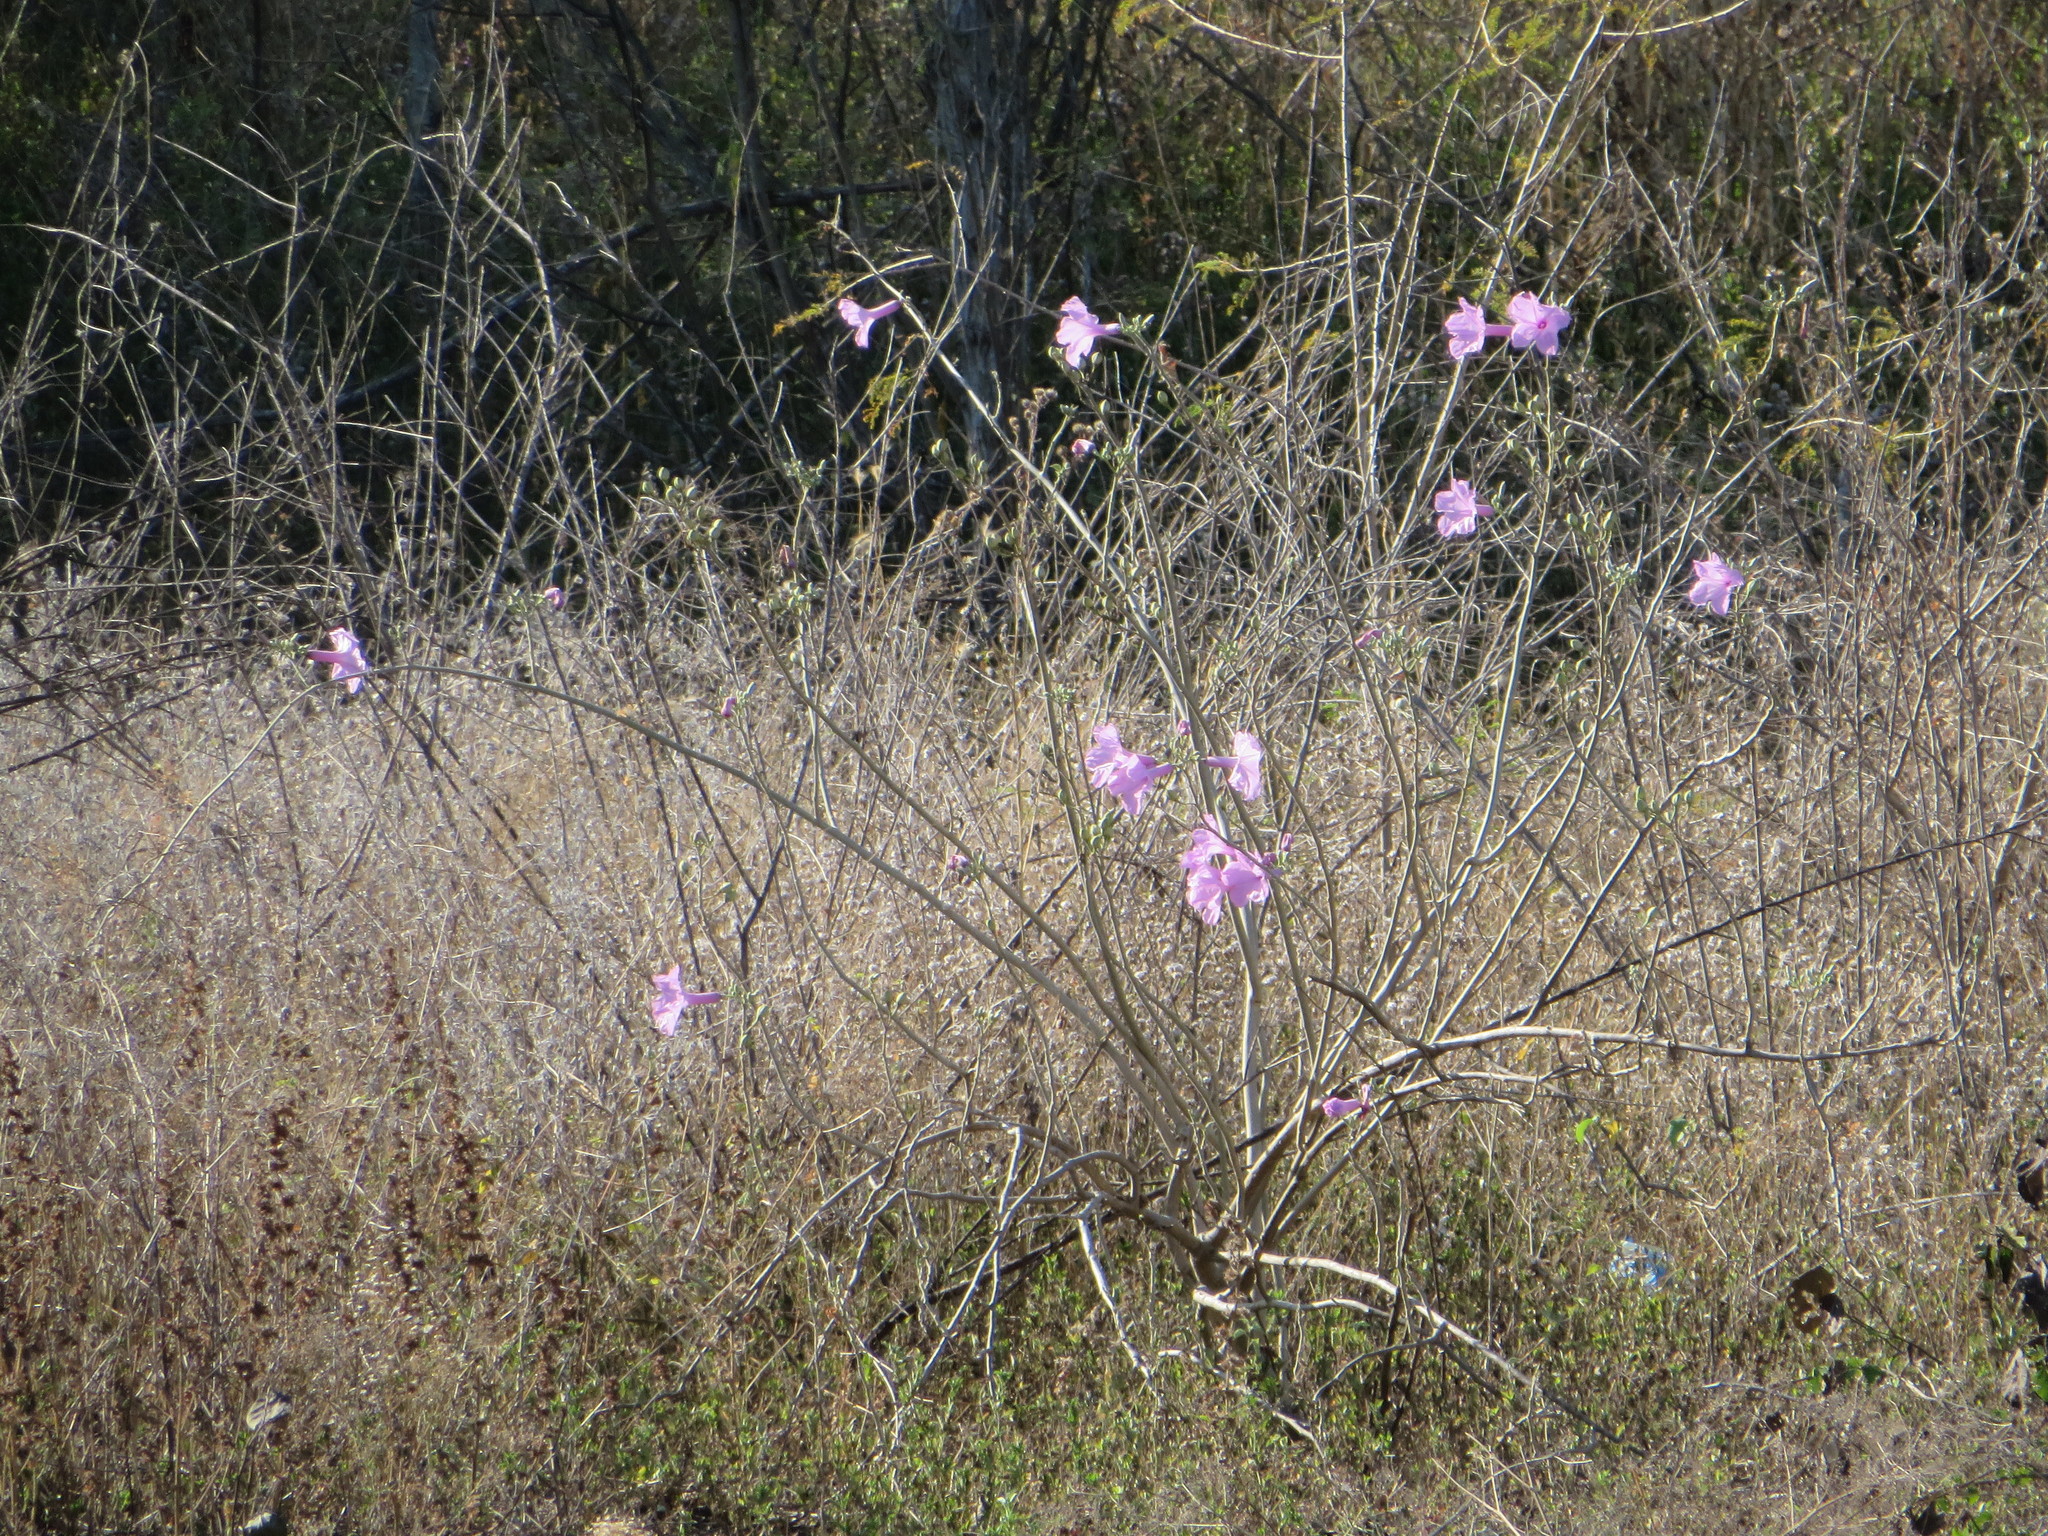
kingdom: Plantae
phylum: Tracheophyta
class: Magnoliopsida
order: Solanales
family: Convolvulaceae
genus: Ipomoea
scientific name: Ipomoea carnea
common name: Morning-glory
